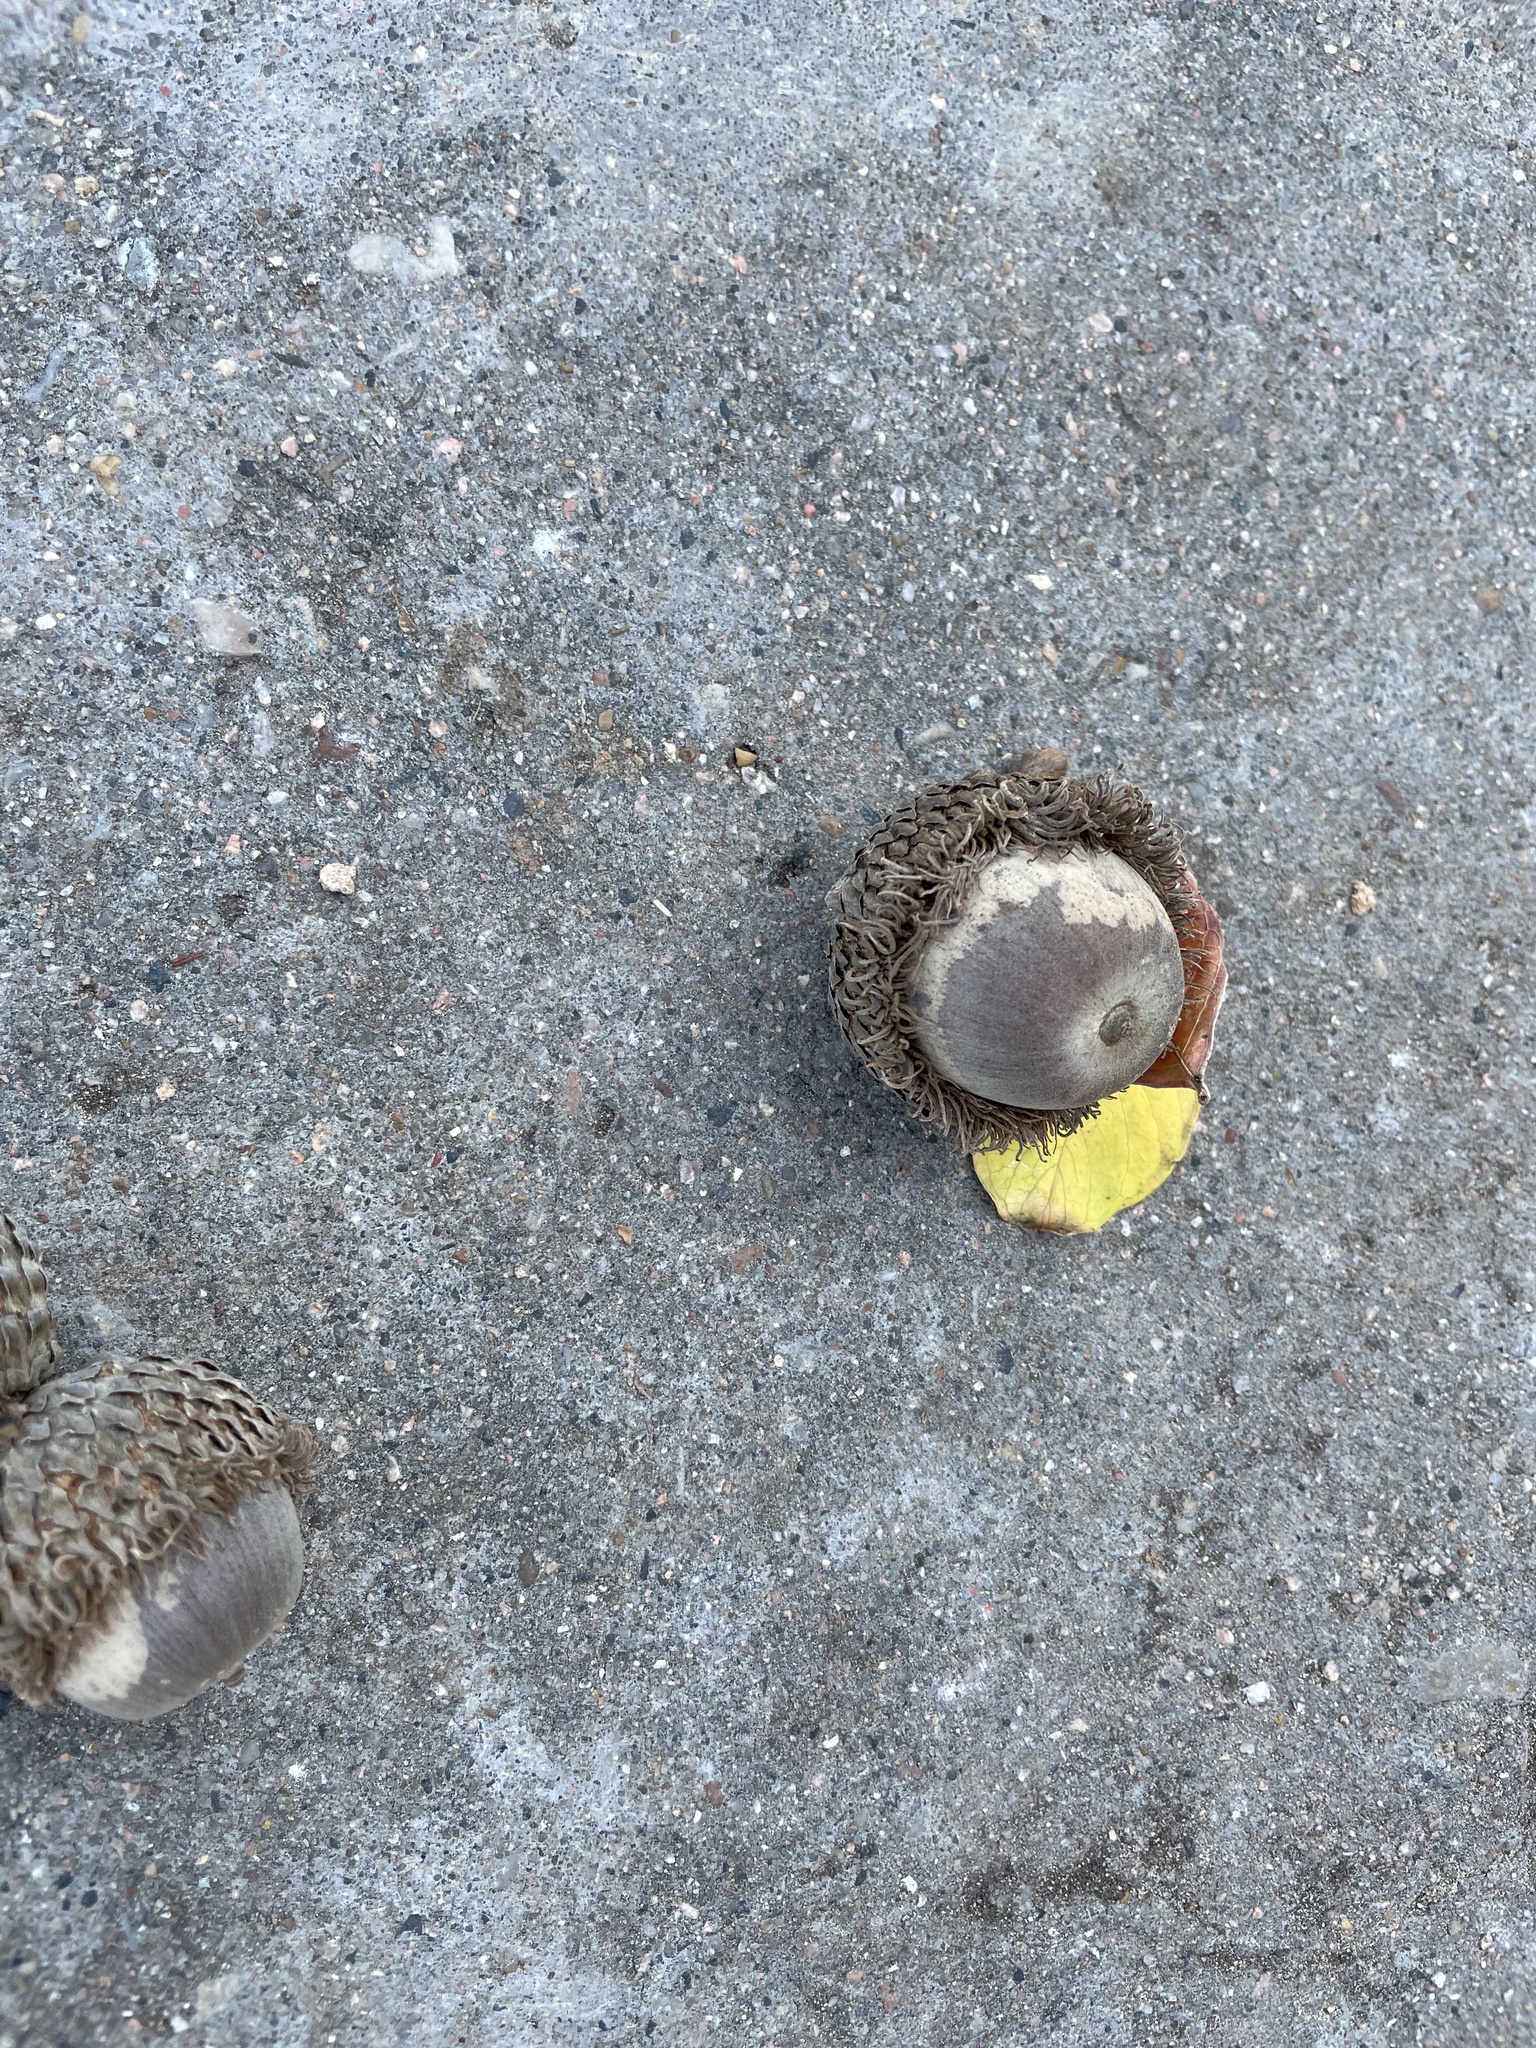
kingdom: Plantae
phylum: Tracheophyta
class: Magnoliopsida
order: Fagales
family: Fagaceae
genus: Quercus
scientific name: Quercus macrocarpa
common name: Bur oak
